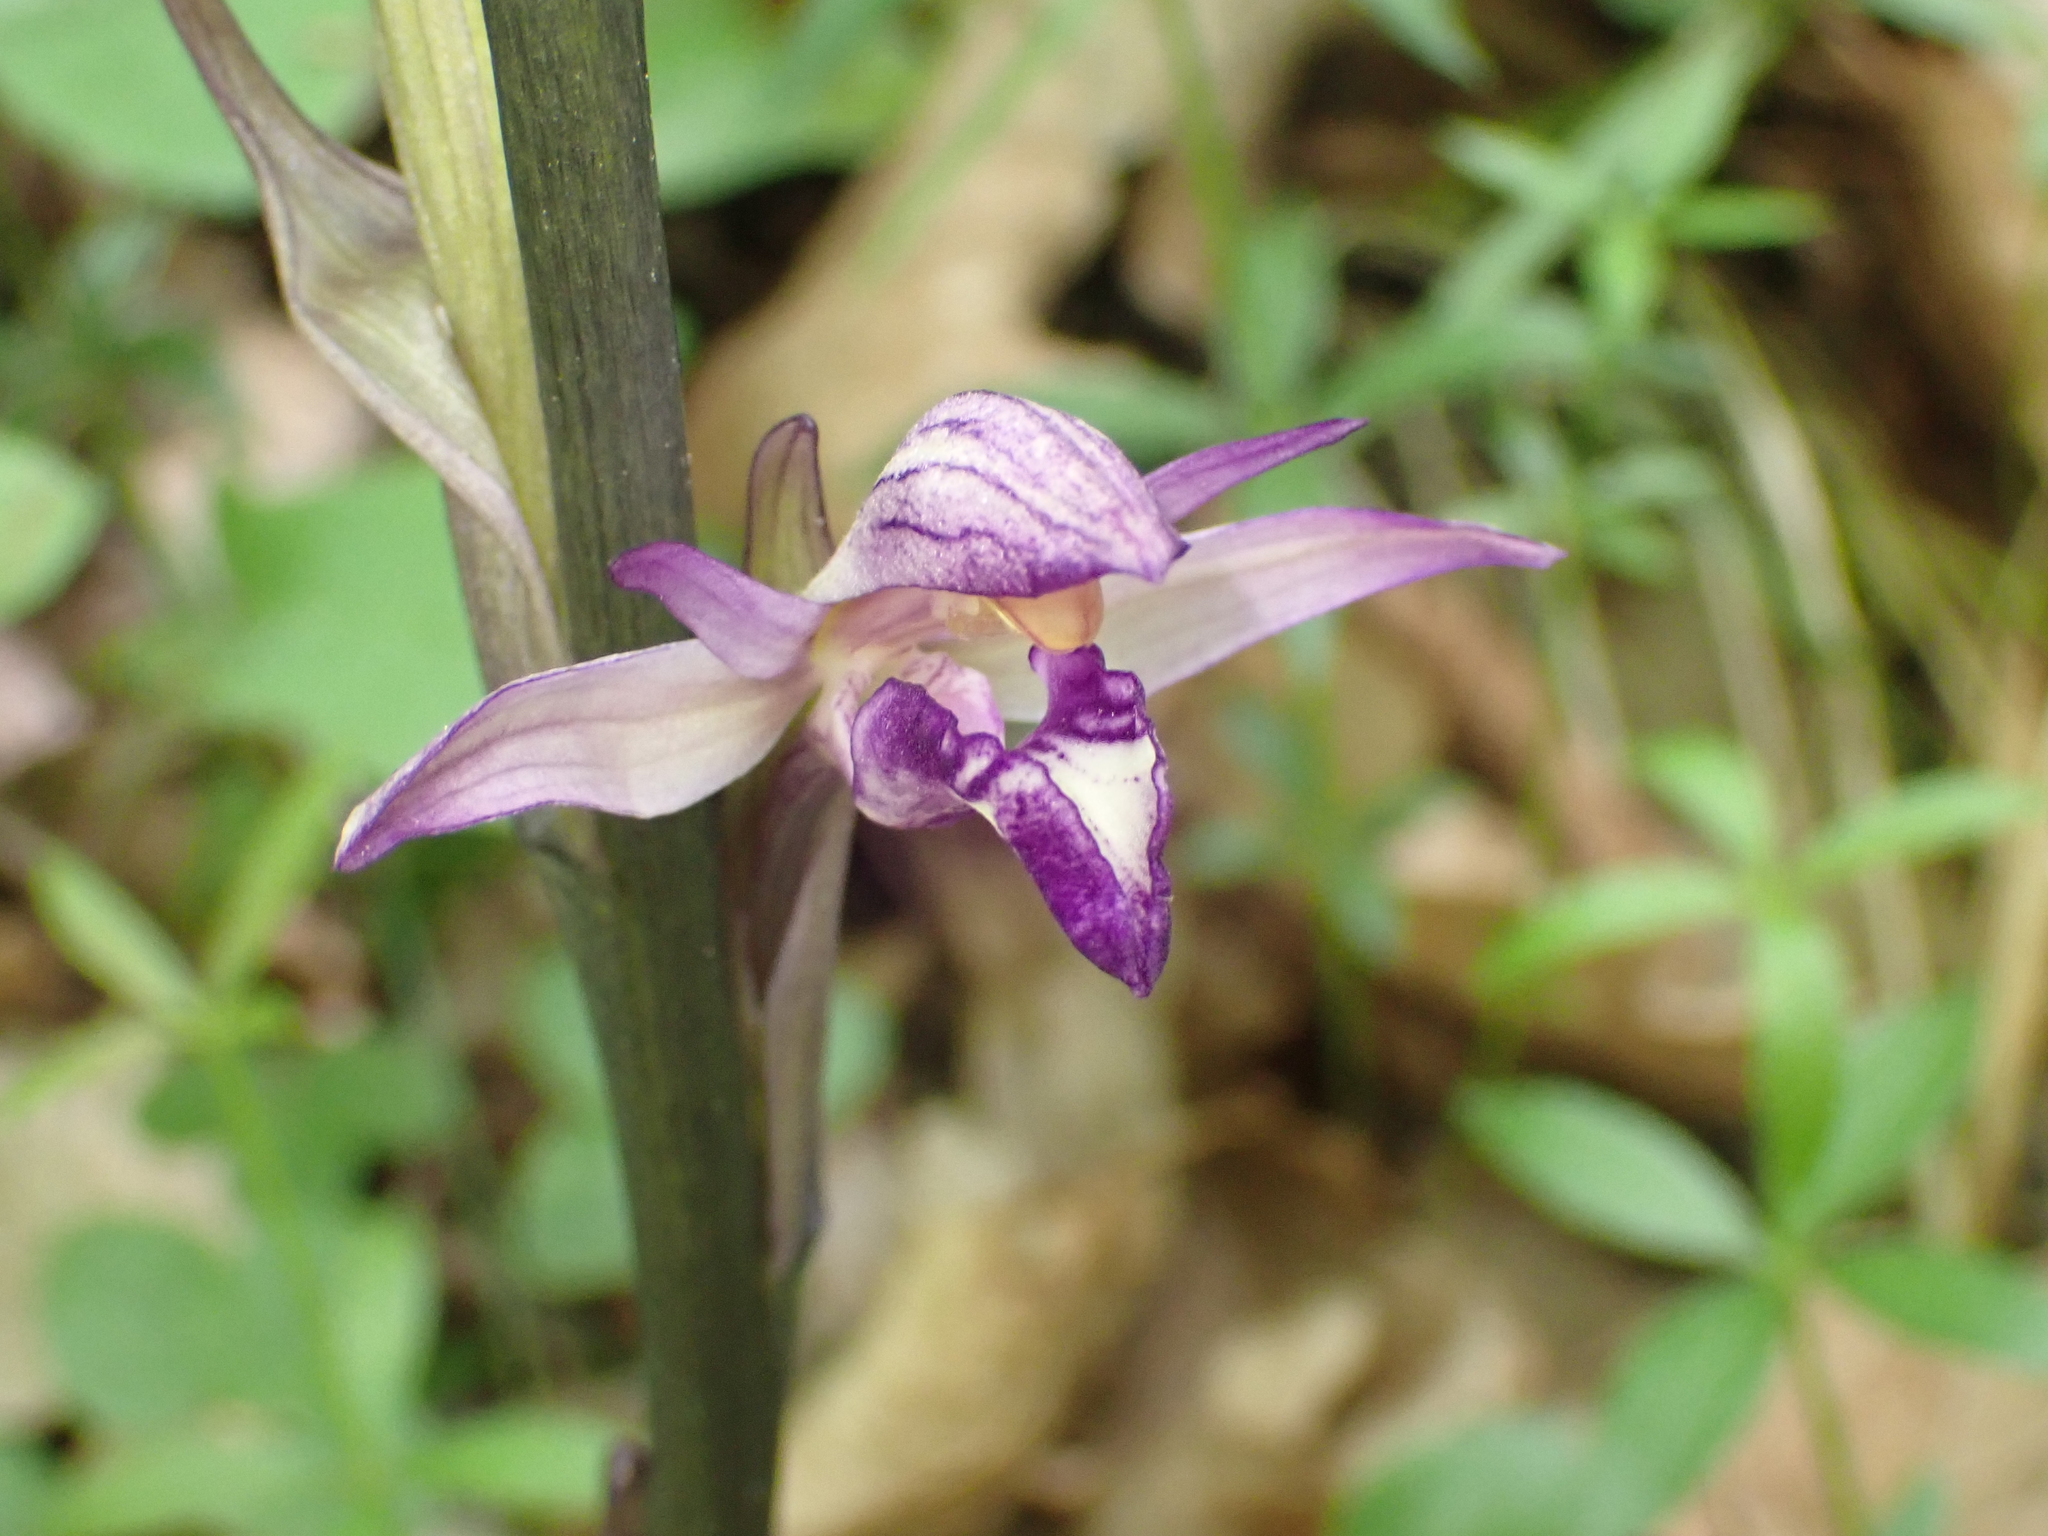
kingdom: Plantae
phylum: Tracheophyta
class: Liliopsida
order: Asparagales
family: Orchidaceae
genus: Limodorum
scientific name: Limodorum abortivum
